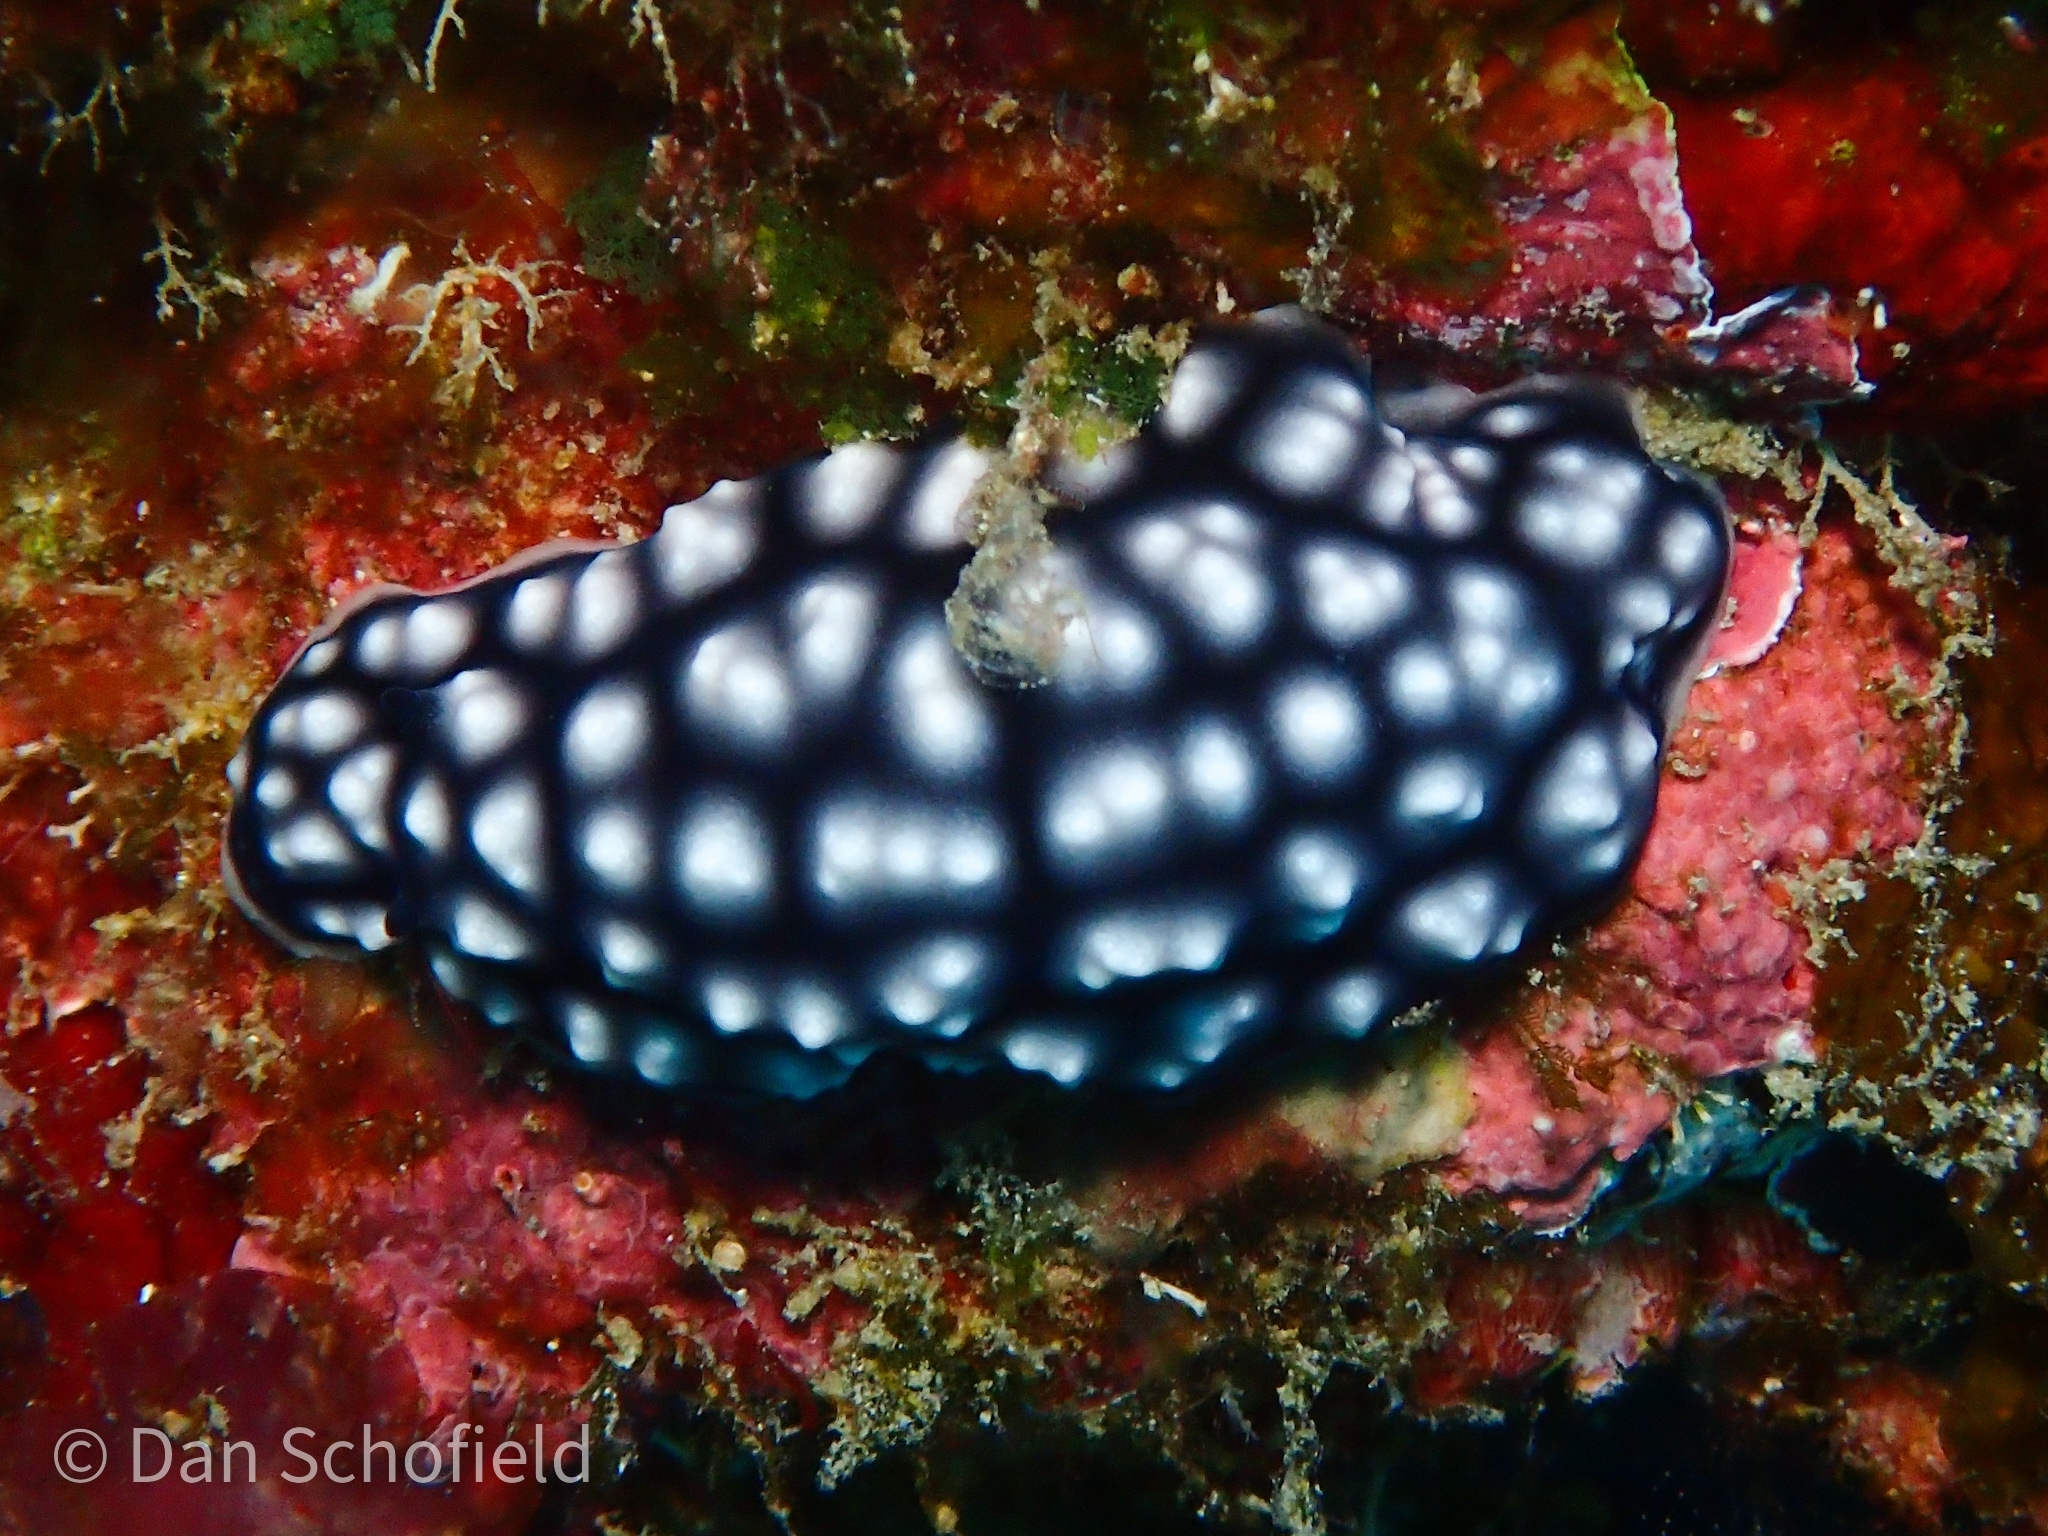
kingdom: Animalia
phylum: Mollusca
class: Gastropoda
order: Nudibranchia
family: Phyllidiidae
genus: Phyllidiella
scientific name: Phyllidiella pustulosa
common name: Pustular phyllidia
